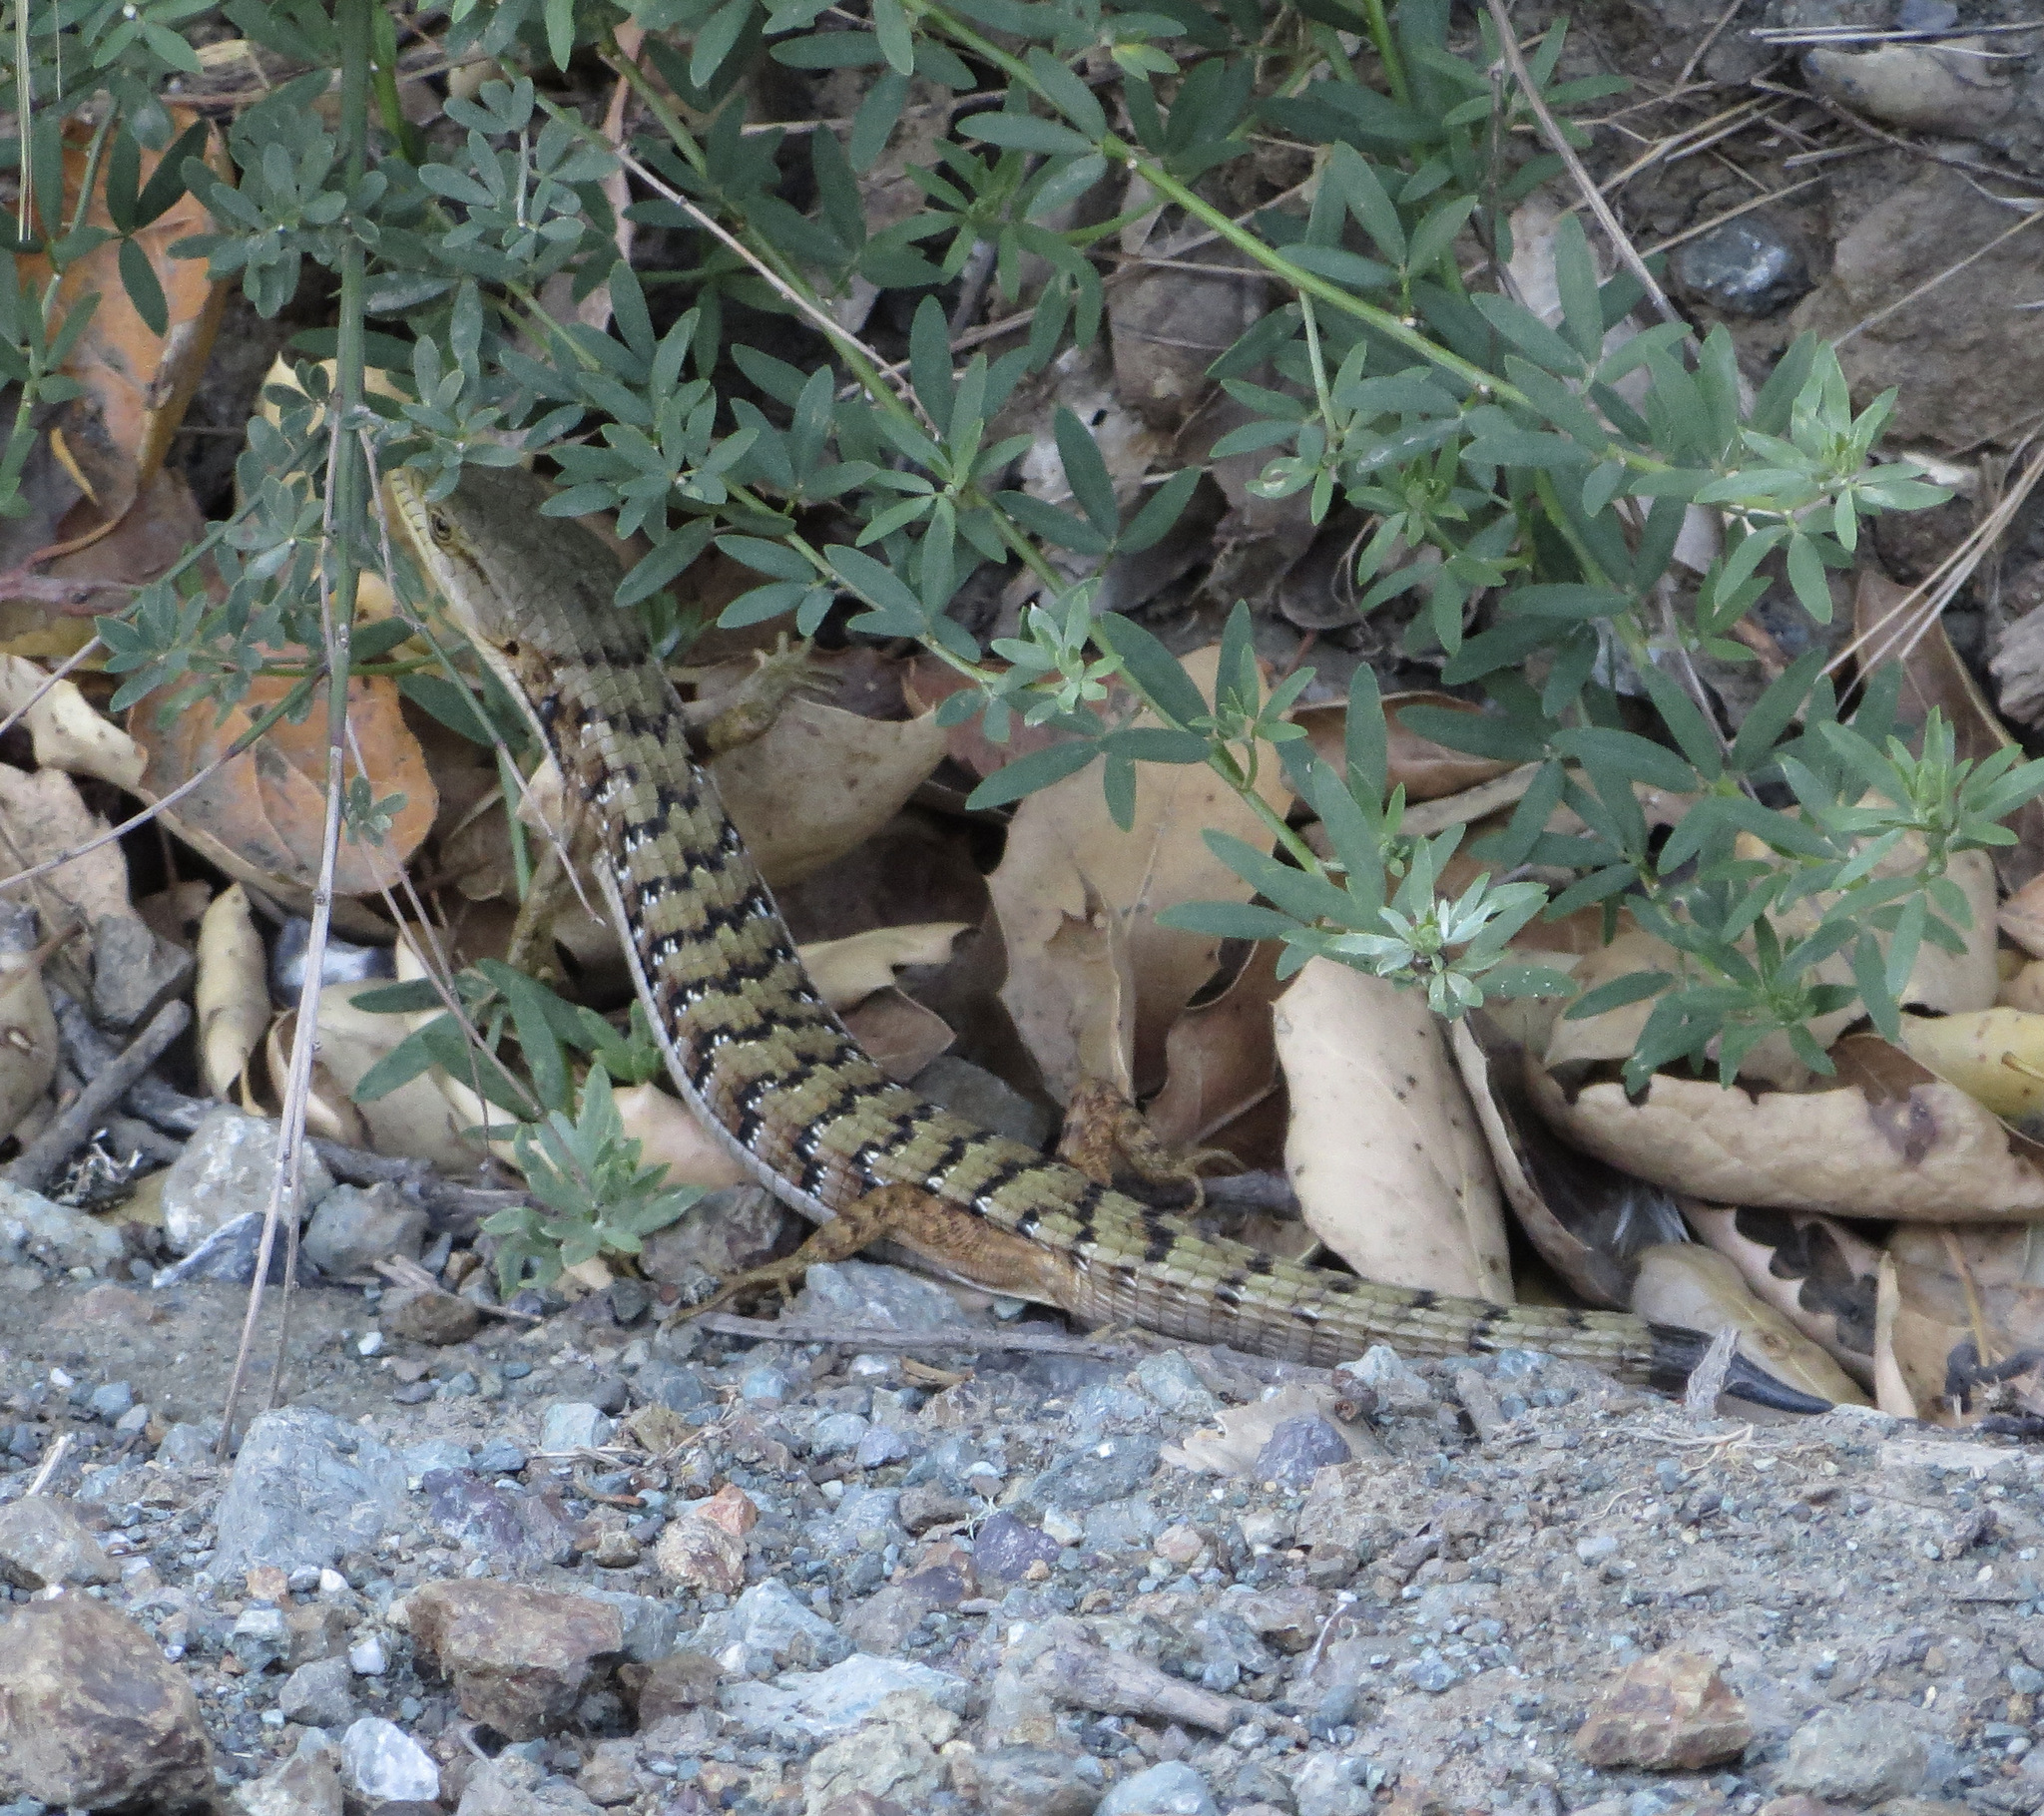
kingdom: Animalia
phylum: Chordata
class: Squamata
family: Anguidae
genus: Elgaria
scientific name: Elgaria multicarinata
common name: Southern alligator lizard
